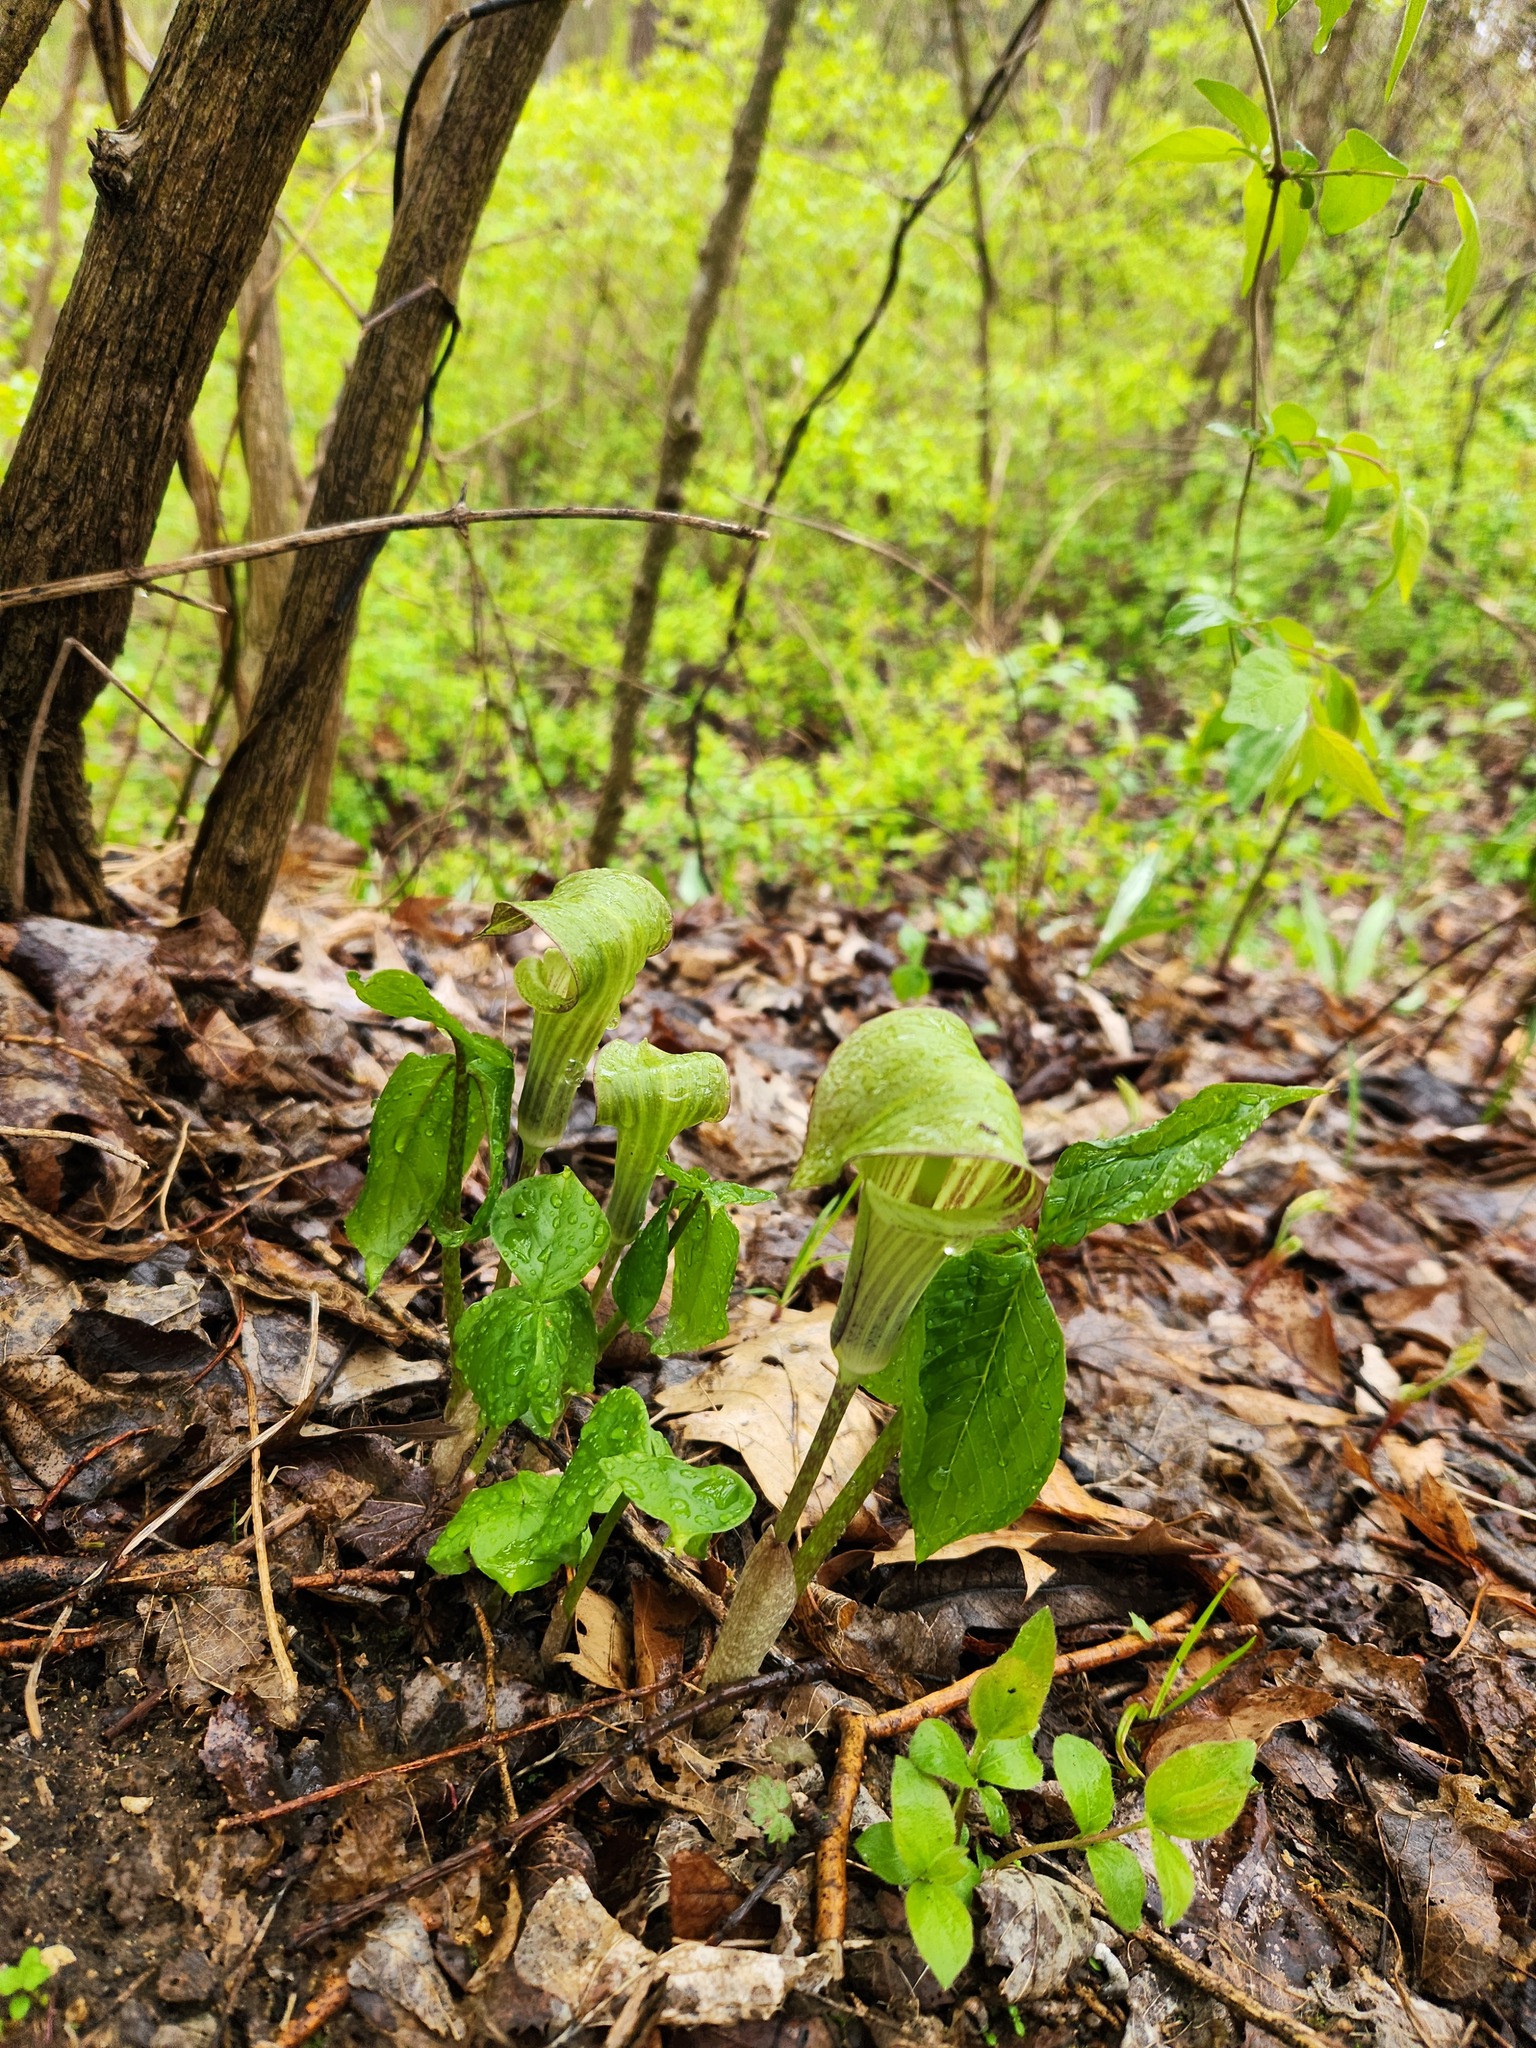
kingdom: Plantae
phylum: Tracheophyta
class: Liliopsida
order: Alismatales
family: Araceae
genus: Arisaema
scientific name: Arisaema triphyllum
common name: Jack-in-the-pulpit
